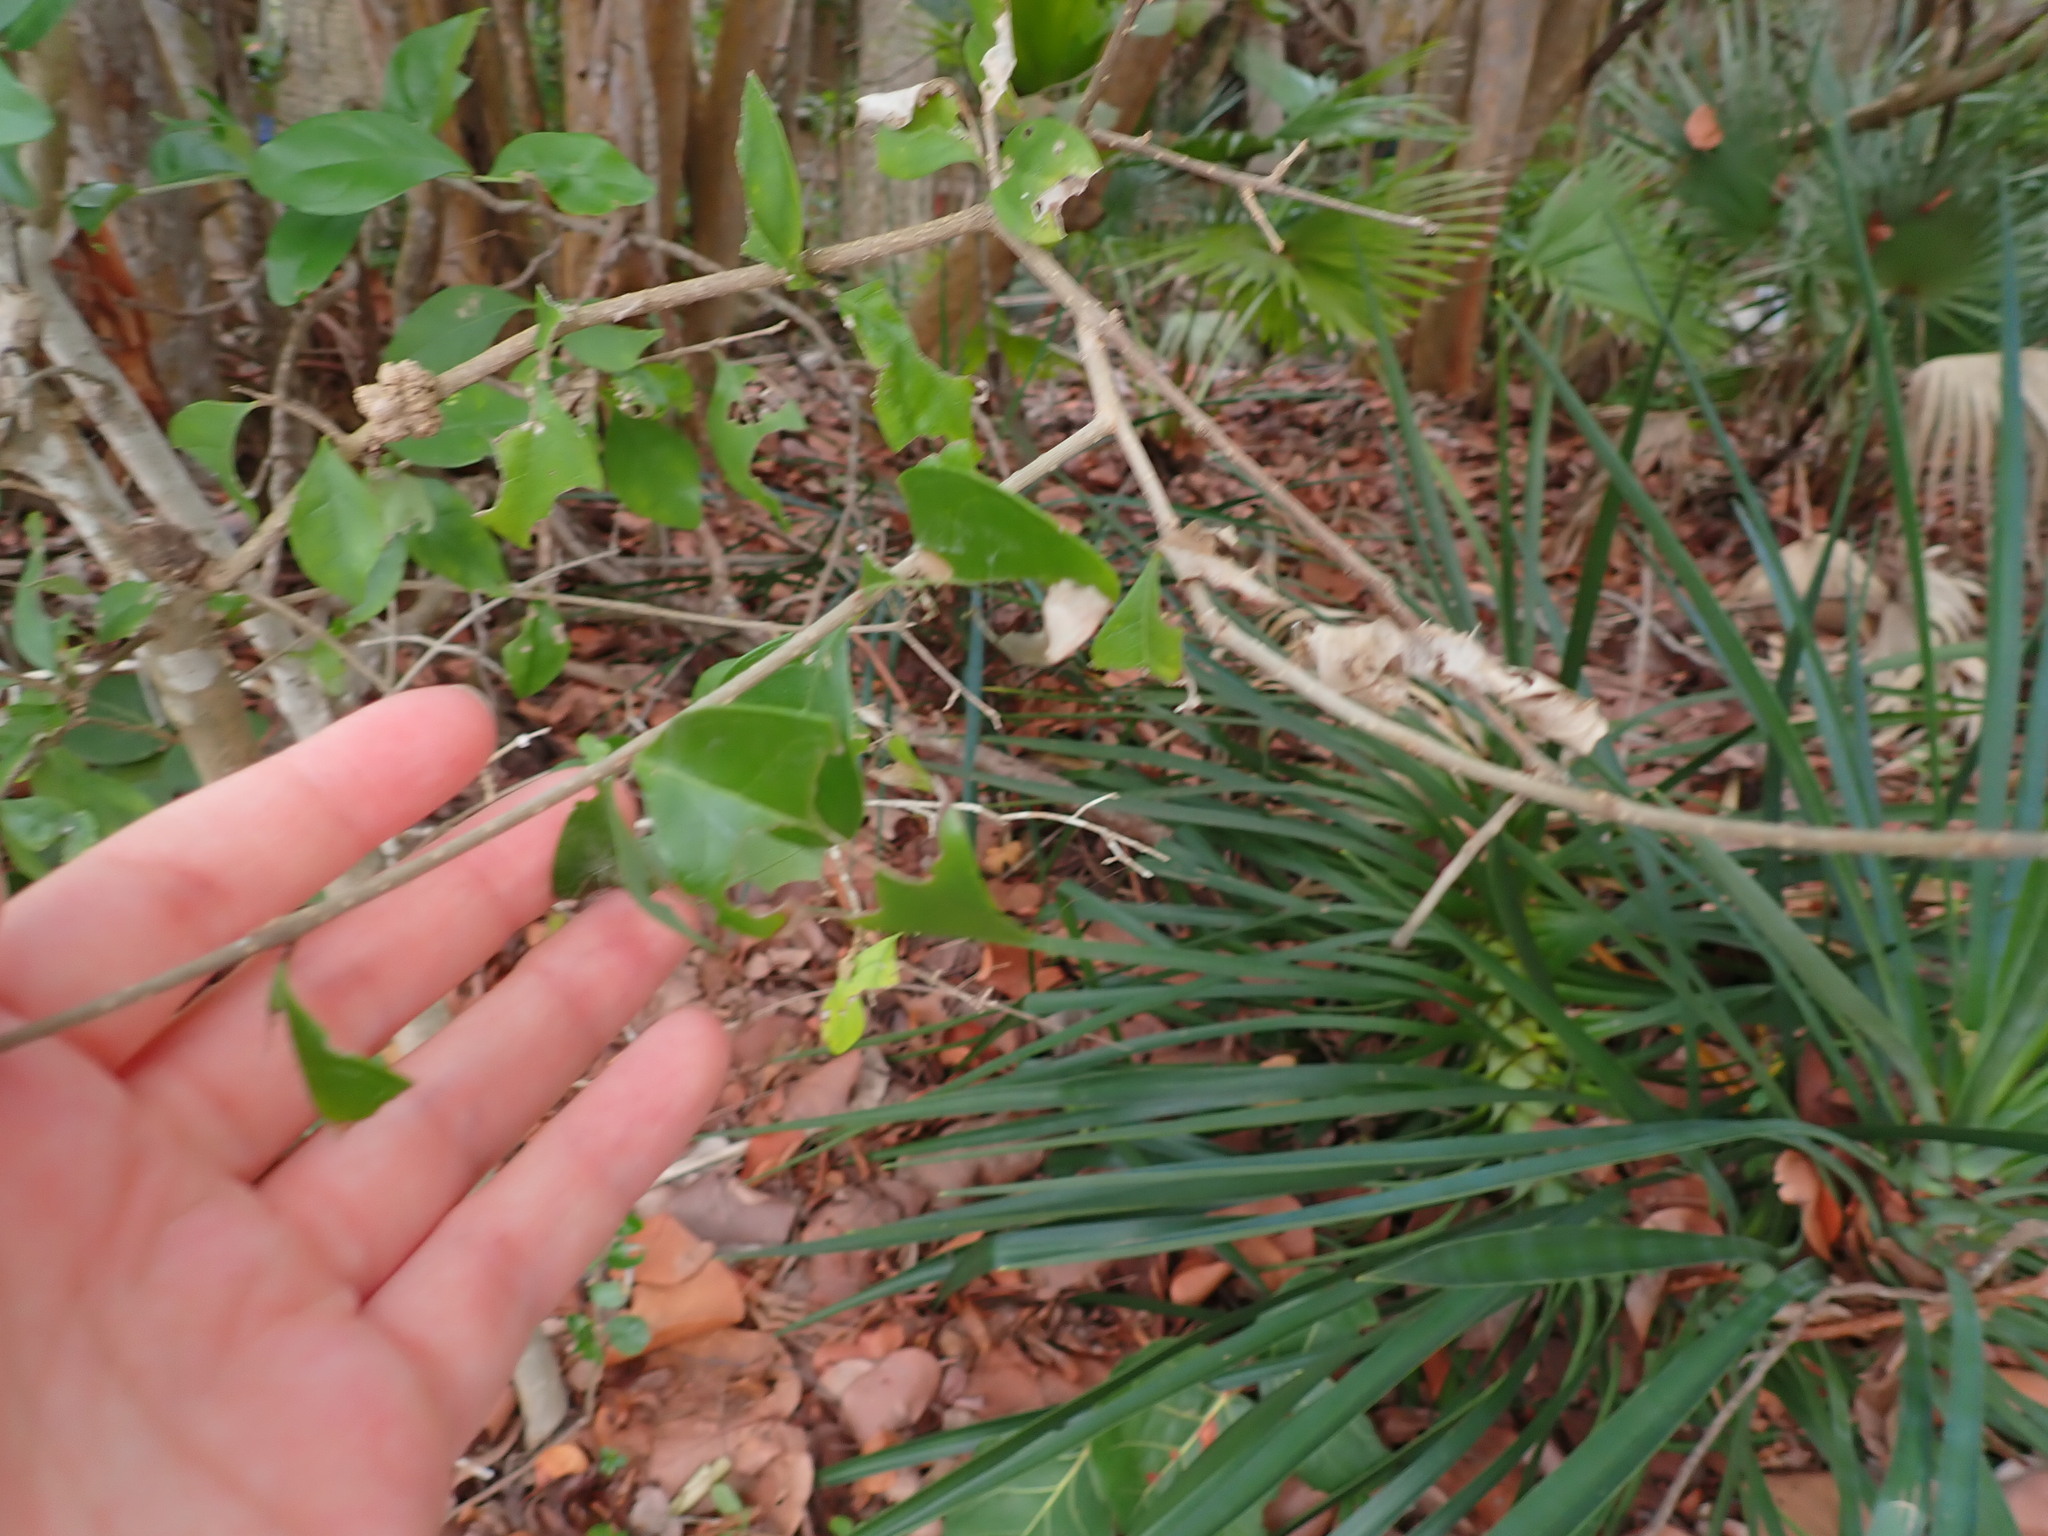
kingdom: Plantae
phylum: Tracheophyta
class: Magnoliopsida
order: Lamiales
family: Oleaceae
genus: Forestiera
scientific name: Forestiera segregata
